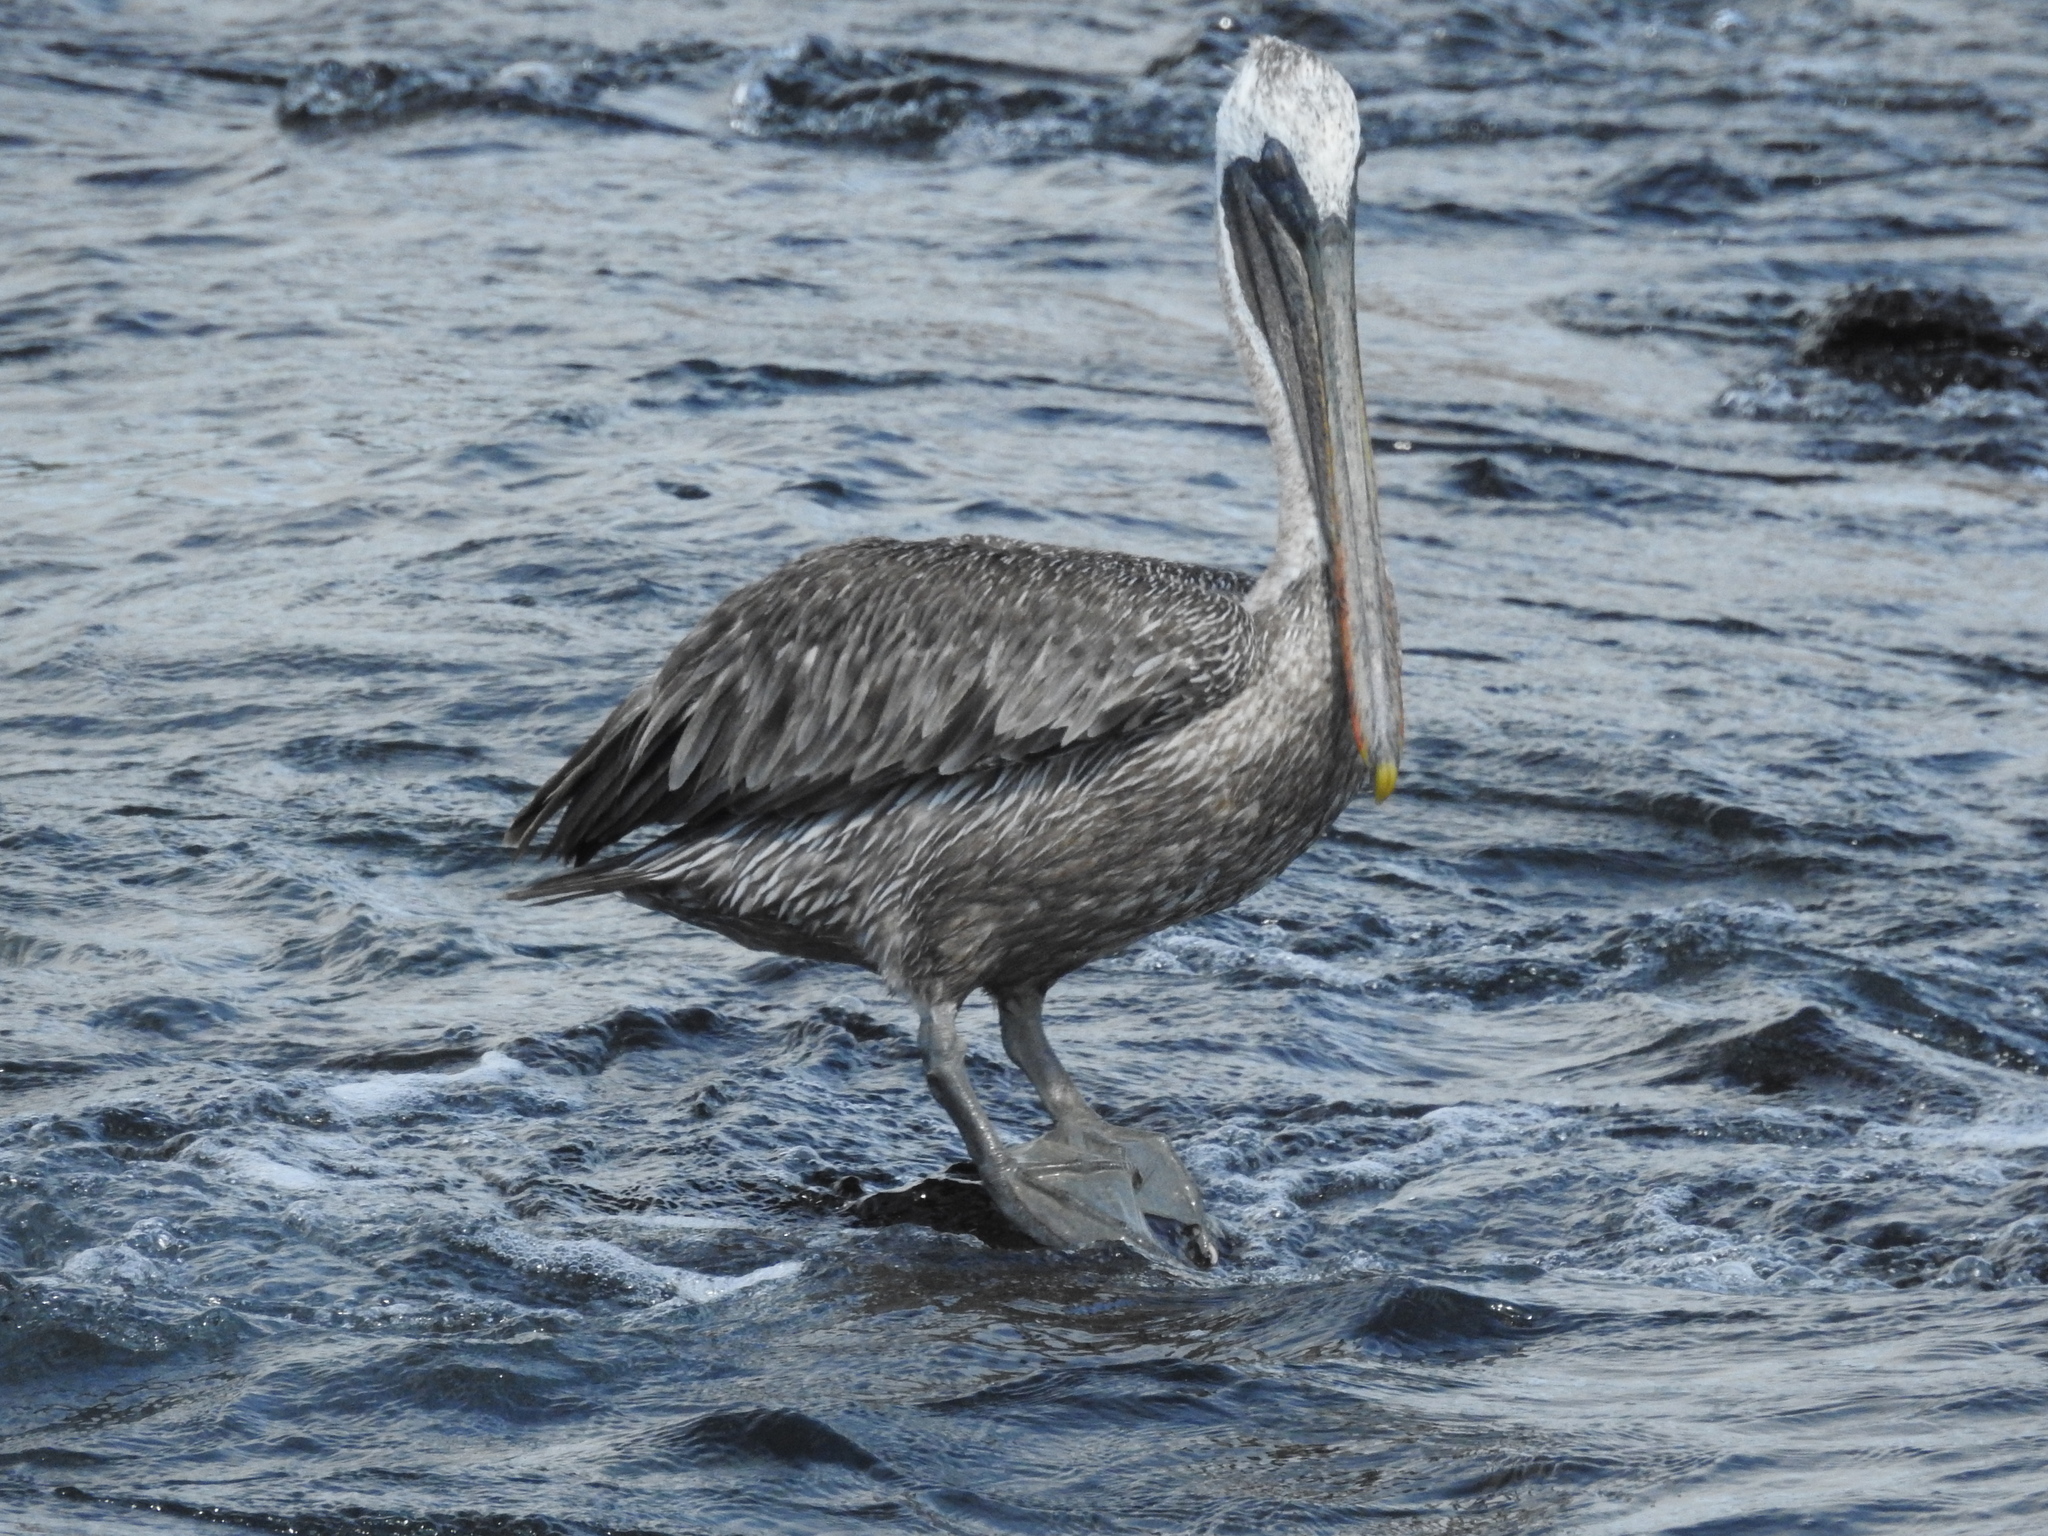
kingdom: Animalia
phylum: Chordata
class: Aves
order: Pelecaniformes
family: Pelecanidae
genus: Pelecanus
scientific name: Pelecanus occidentalis
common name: Brown pelican
